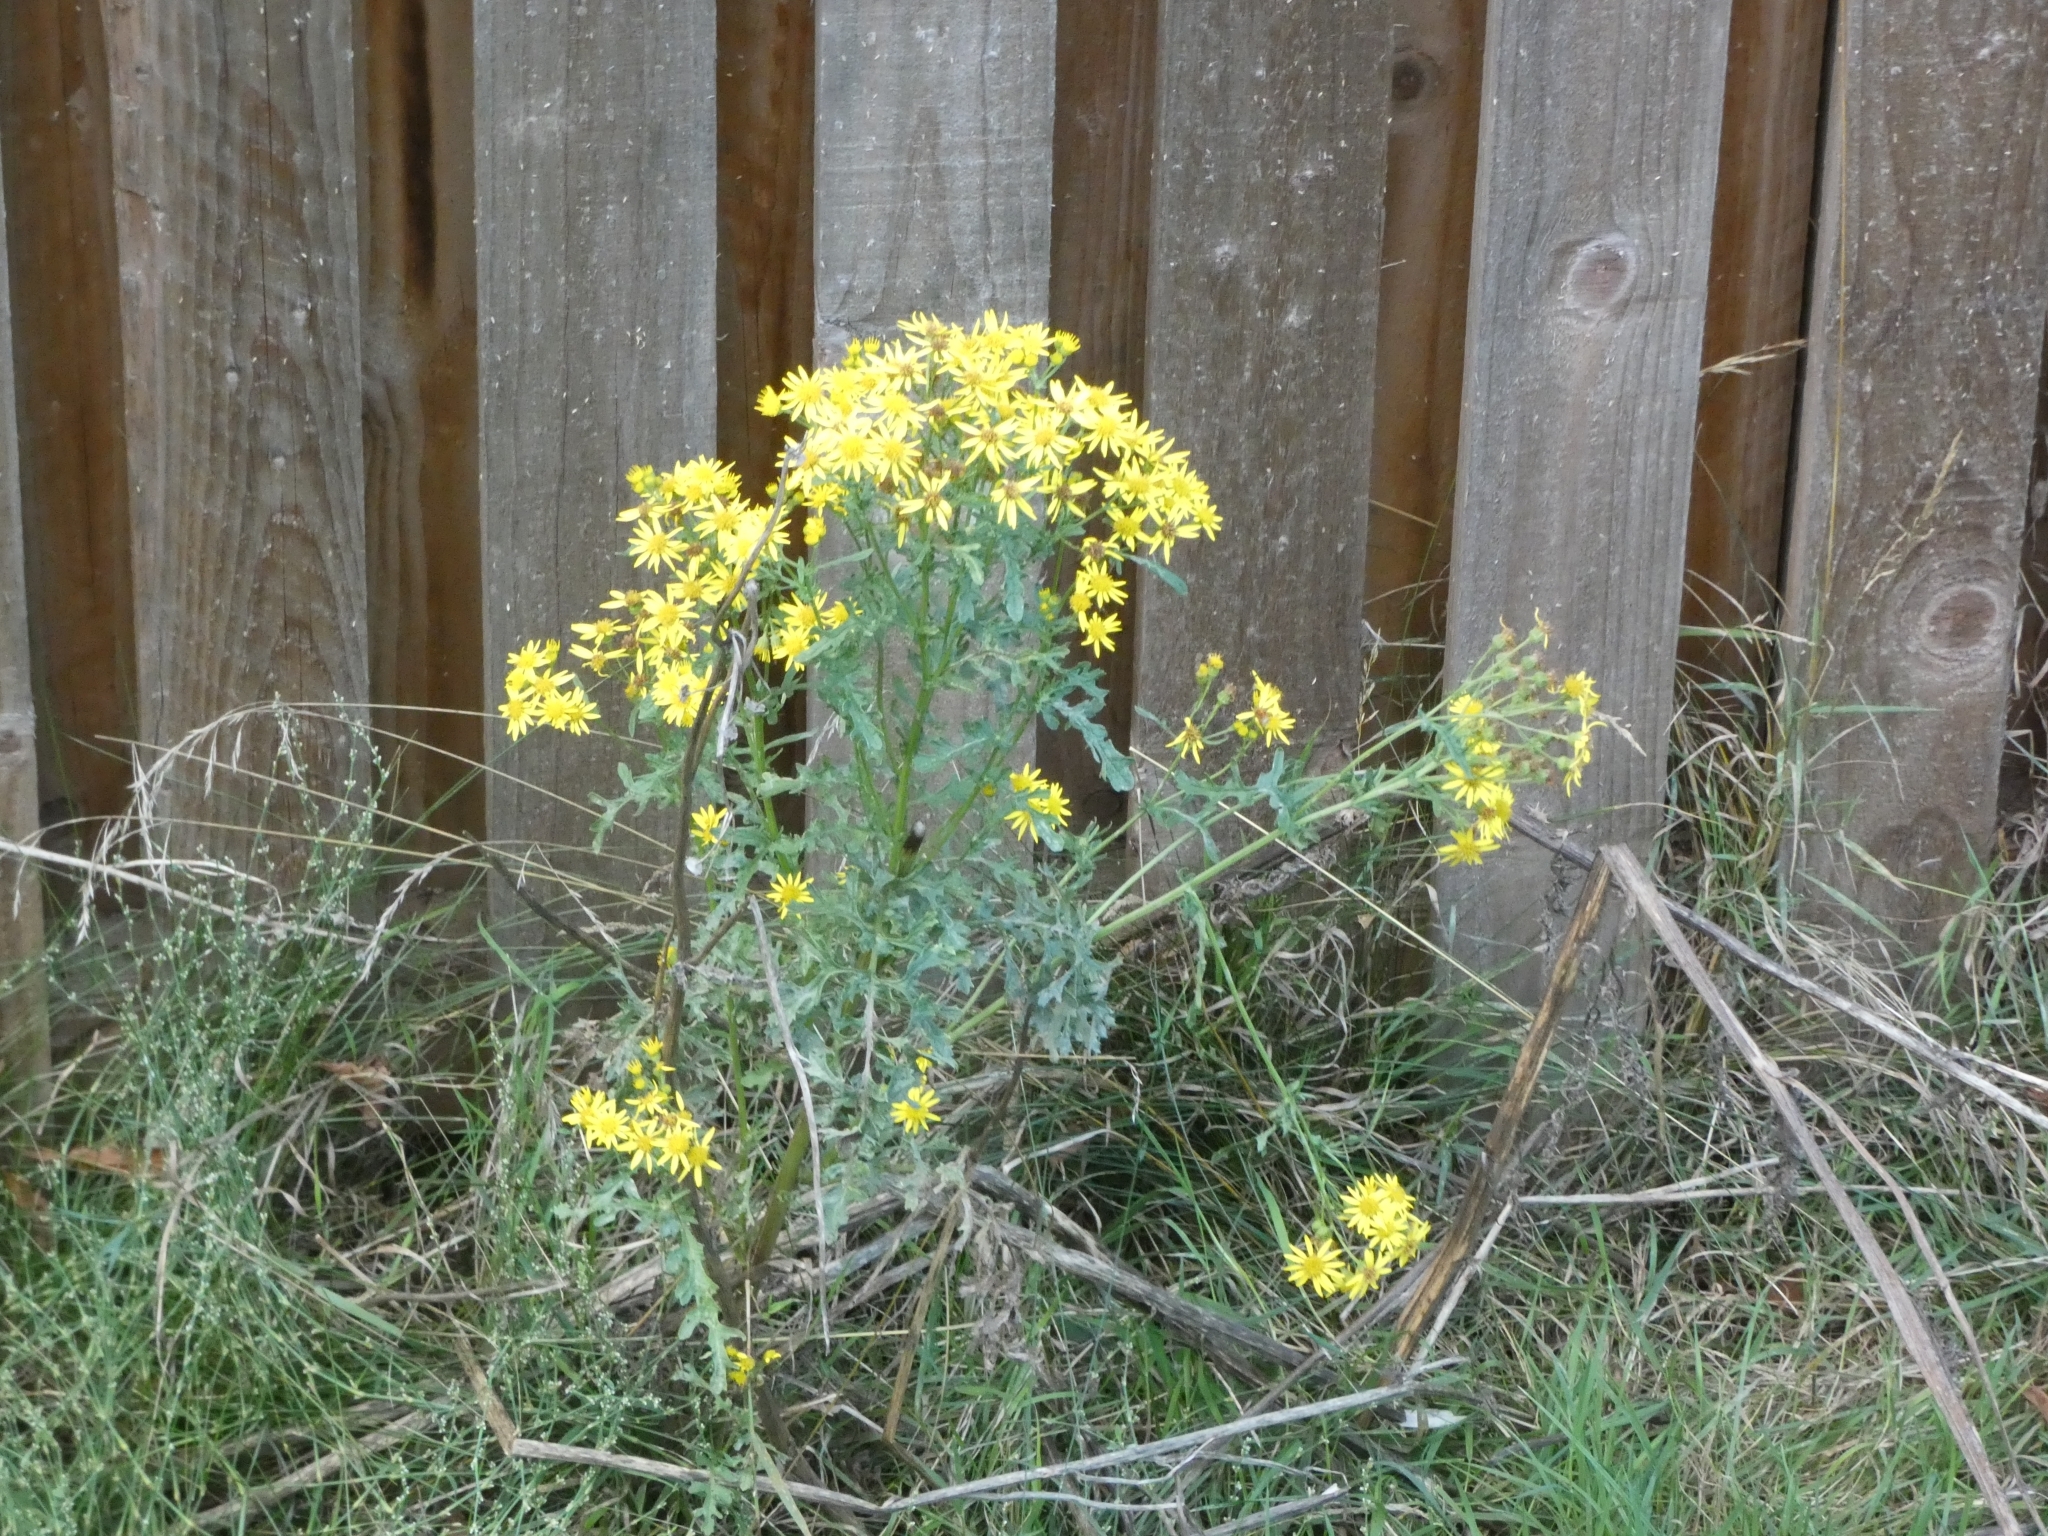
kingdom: Plantae
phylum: Tracheophyta
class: Magnoliopsida
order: Asterales
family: Asteraceae
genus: Jacobaea
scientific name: Jacobaea vulgaris
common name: Stinking willie
